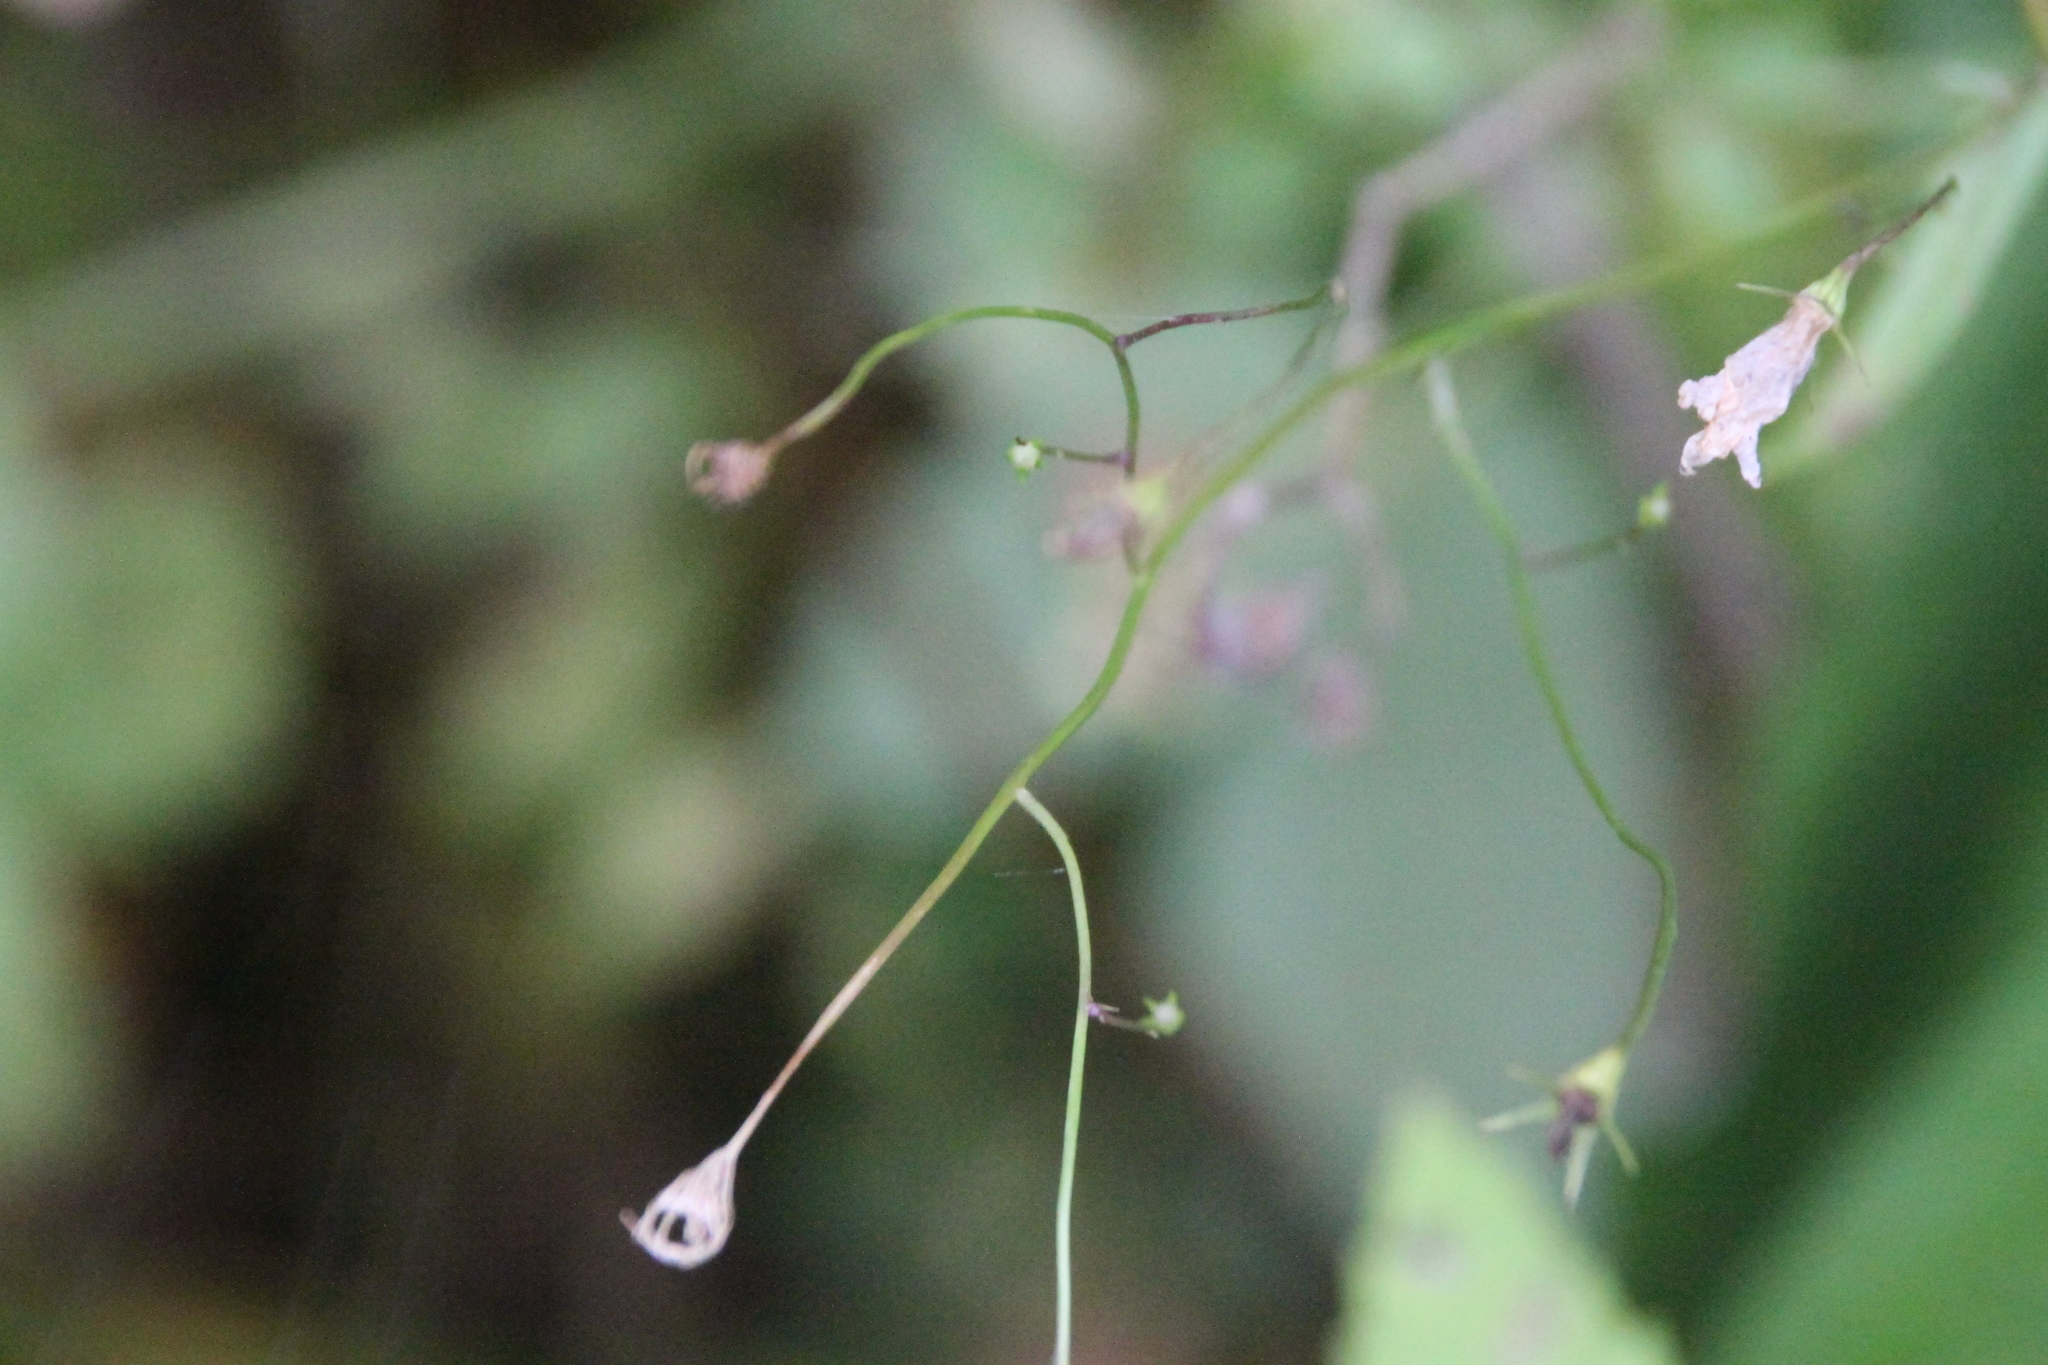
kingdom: Plantae
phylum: Tracheophyta
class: Magnoliopsida
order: Asterales
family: Campanulaceae
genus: Campanula
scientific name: Campanula patula
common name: Spreading bellflower
